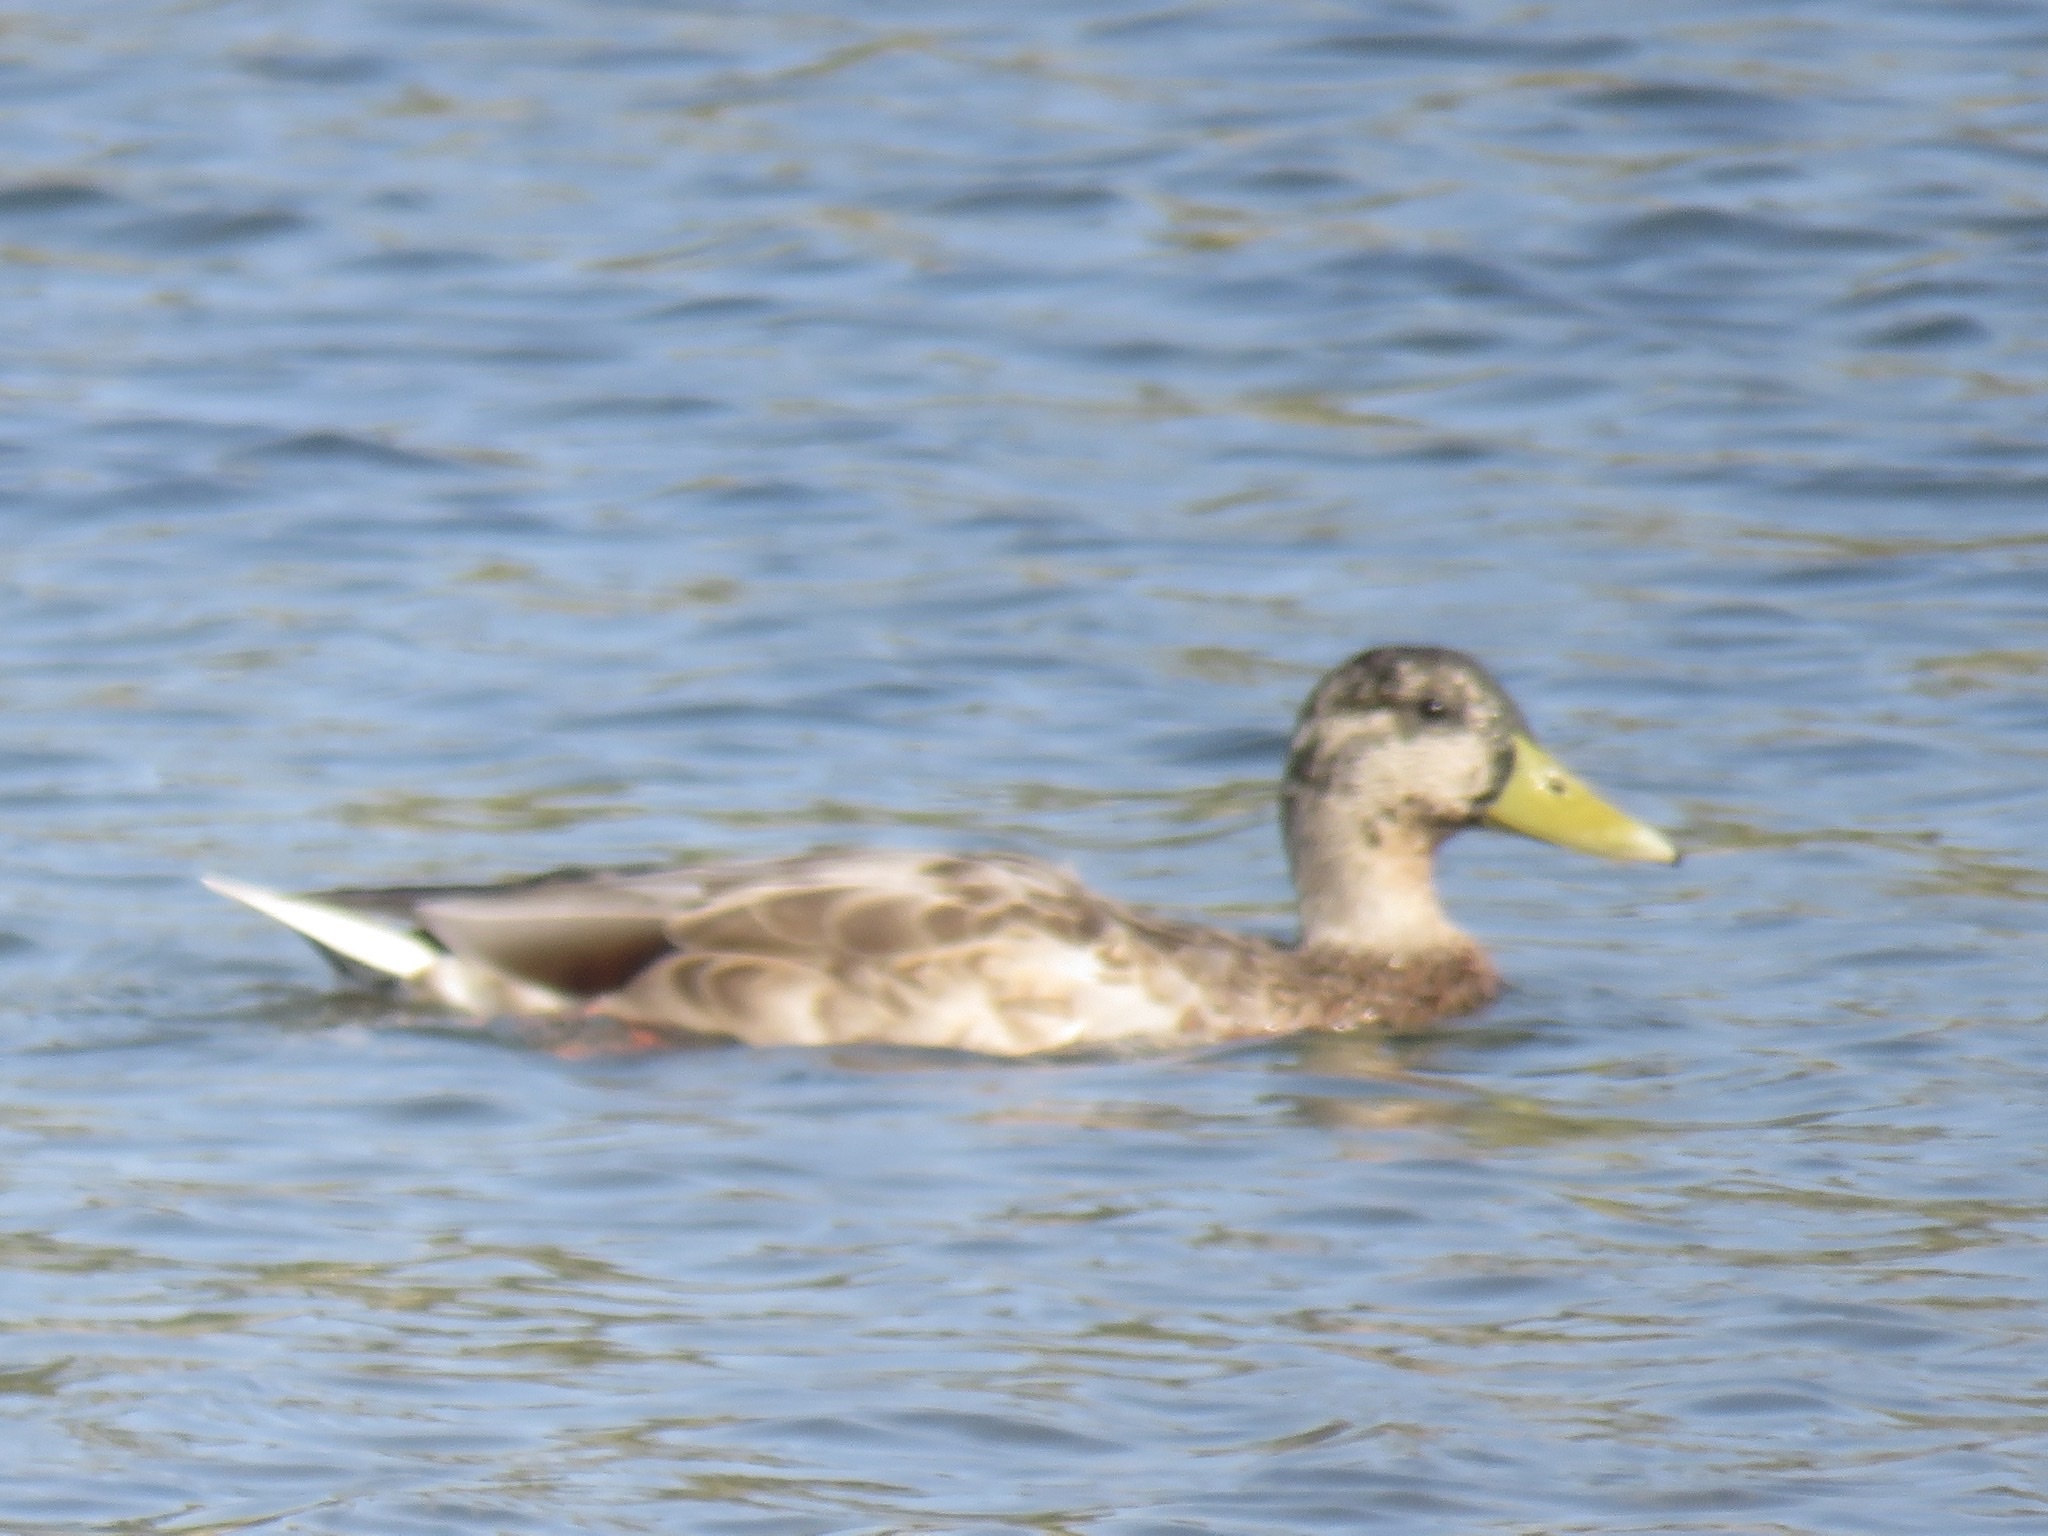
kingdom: Animalia
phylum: Chordata
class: Aves
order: Anseriformes
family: Anatidae
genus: Anas
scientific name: Anas platyrhynchos
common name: Mallard
